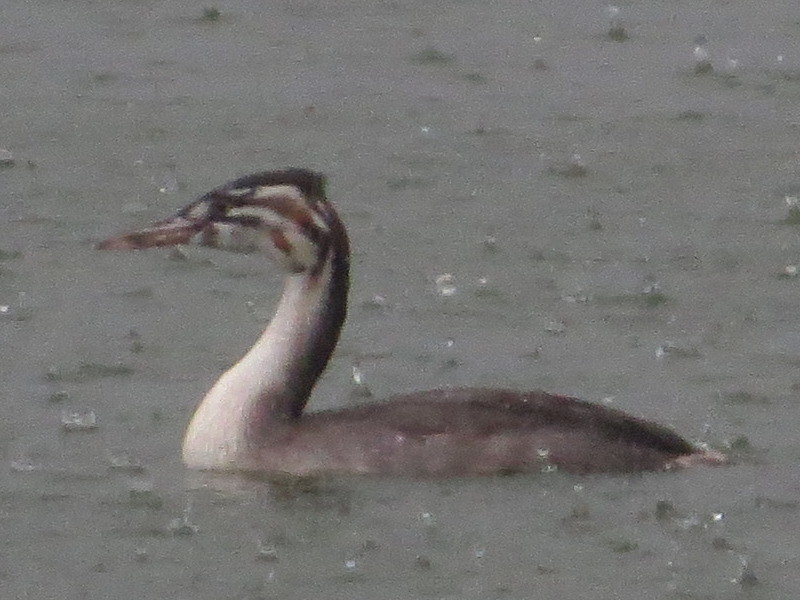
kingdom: Animalia
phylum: Chordata
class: Aves
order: Podicipediformes
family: Podicipedidae
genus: Podiceps
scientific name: Podiceps cristatus
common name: Great crested grebe
